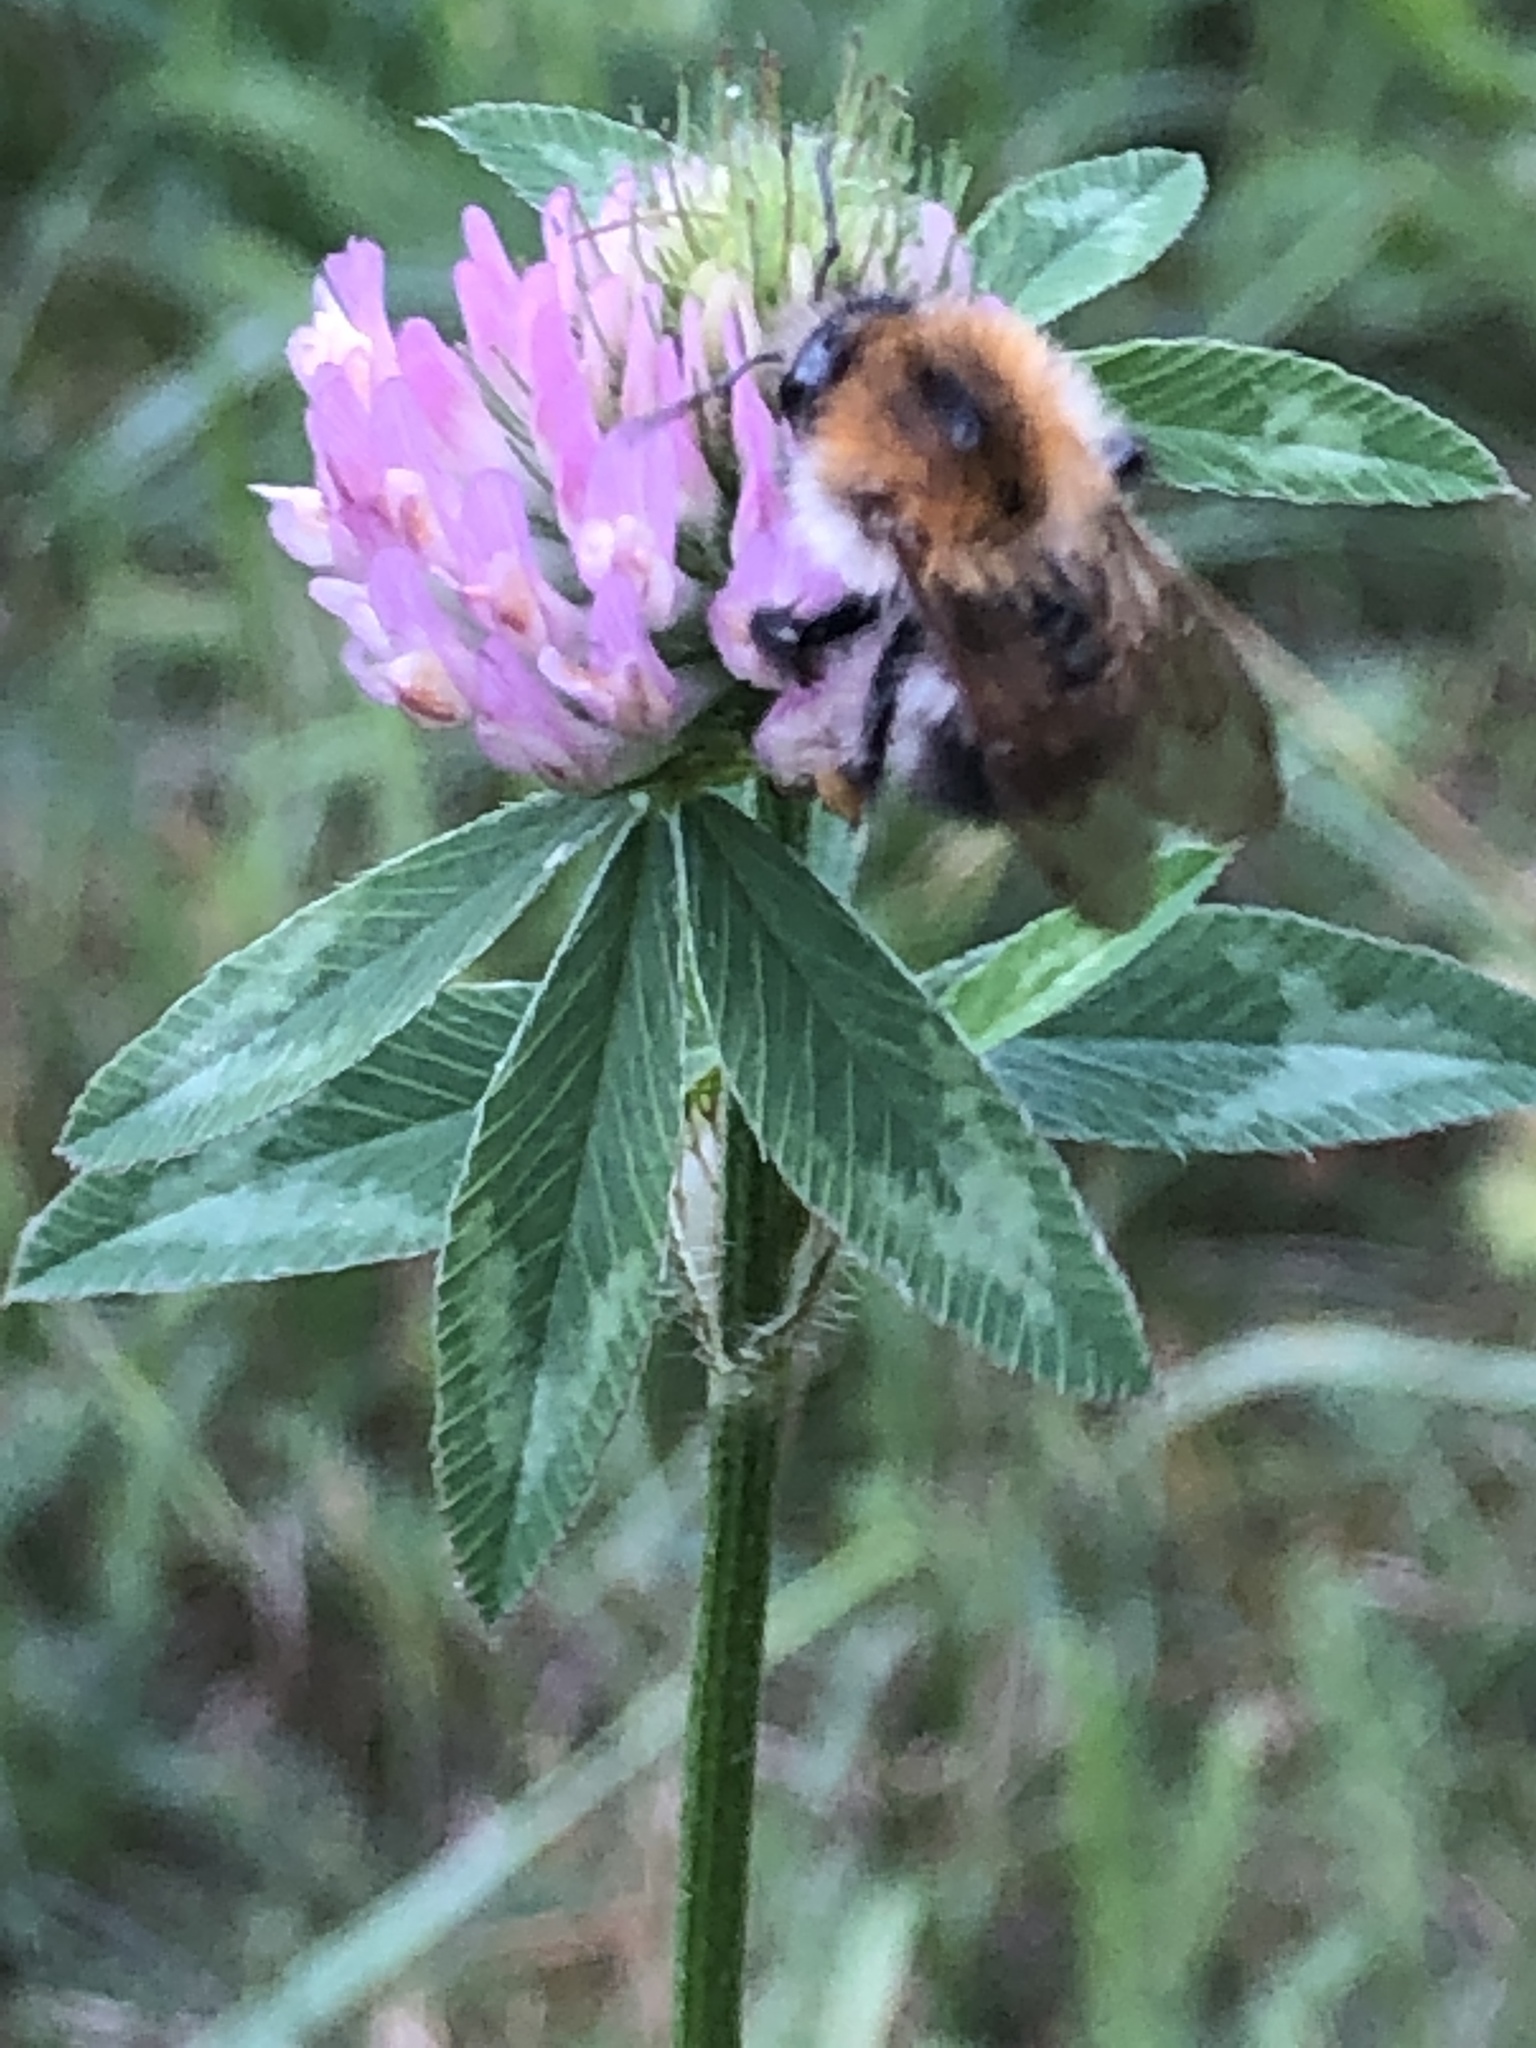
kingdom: Animalia
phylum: Arthropoda
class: Insecta
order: Hymenoptera
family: Apidae
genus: Bombus
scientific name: Bombus pascuorum
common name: Common carder bee
